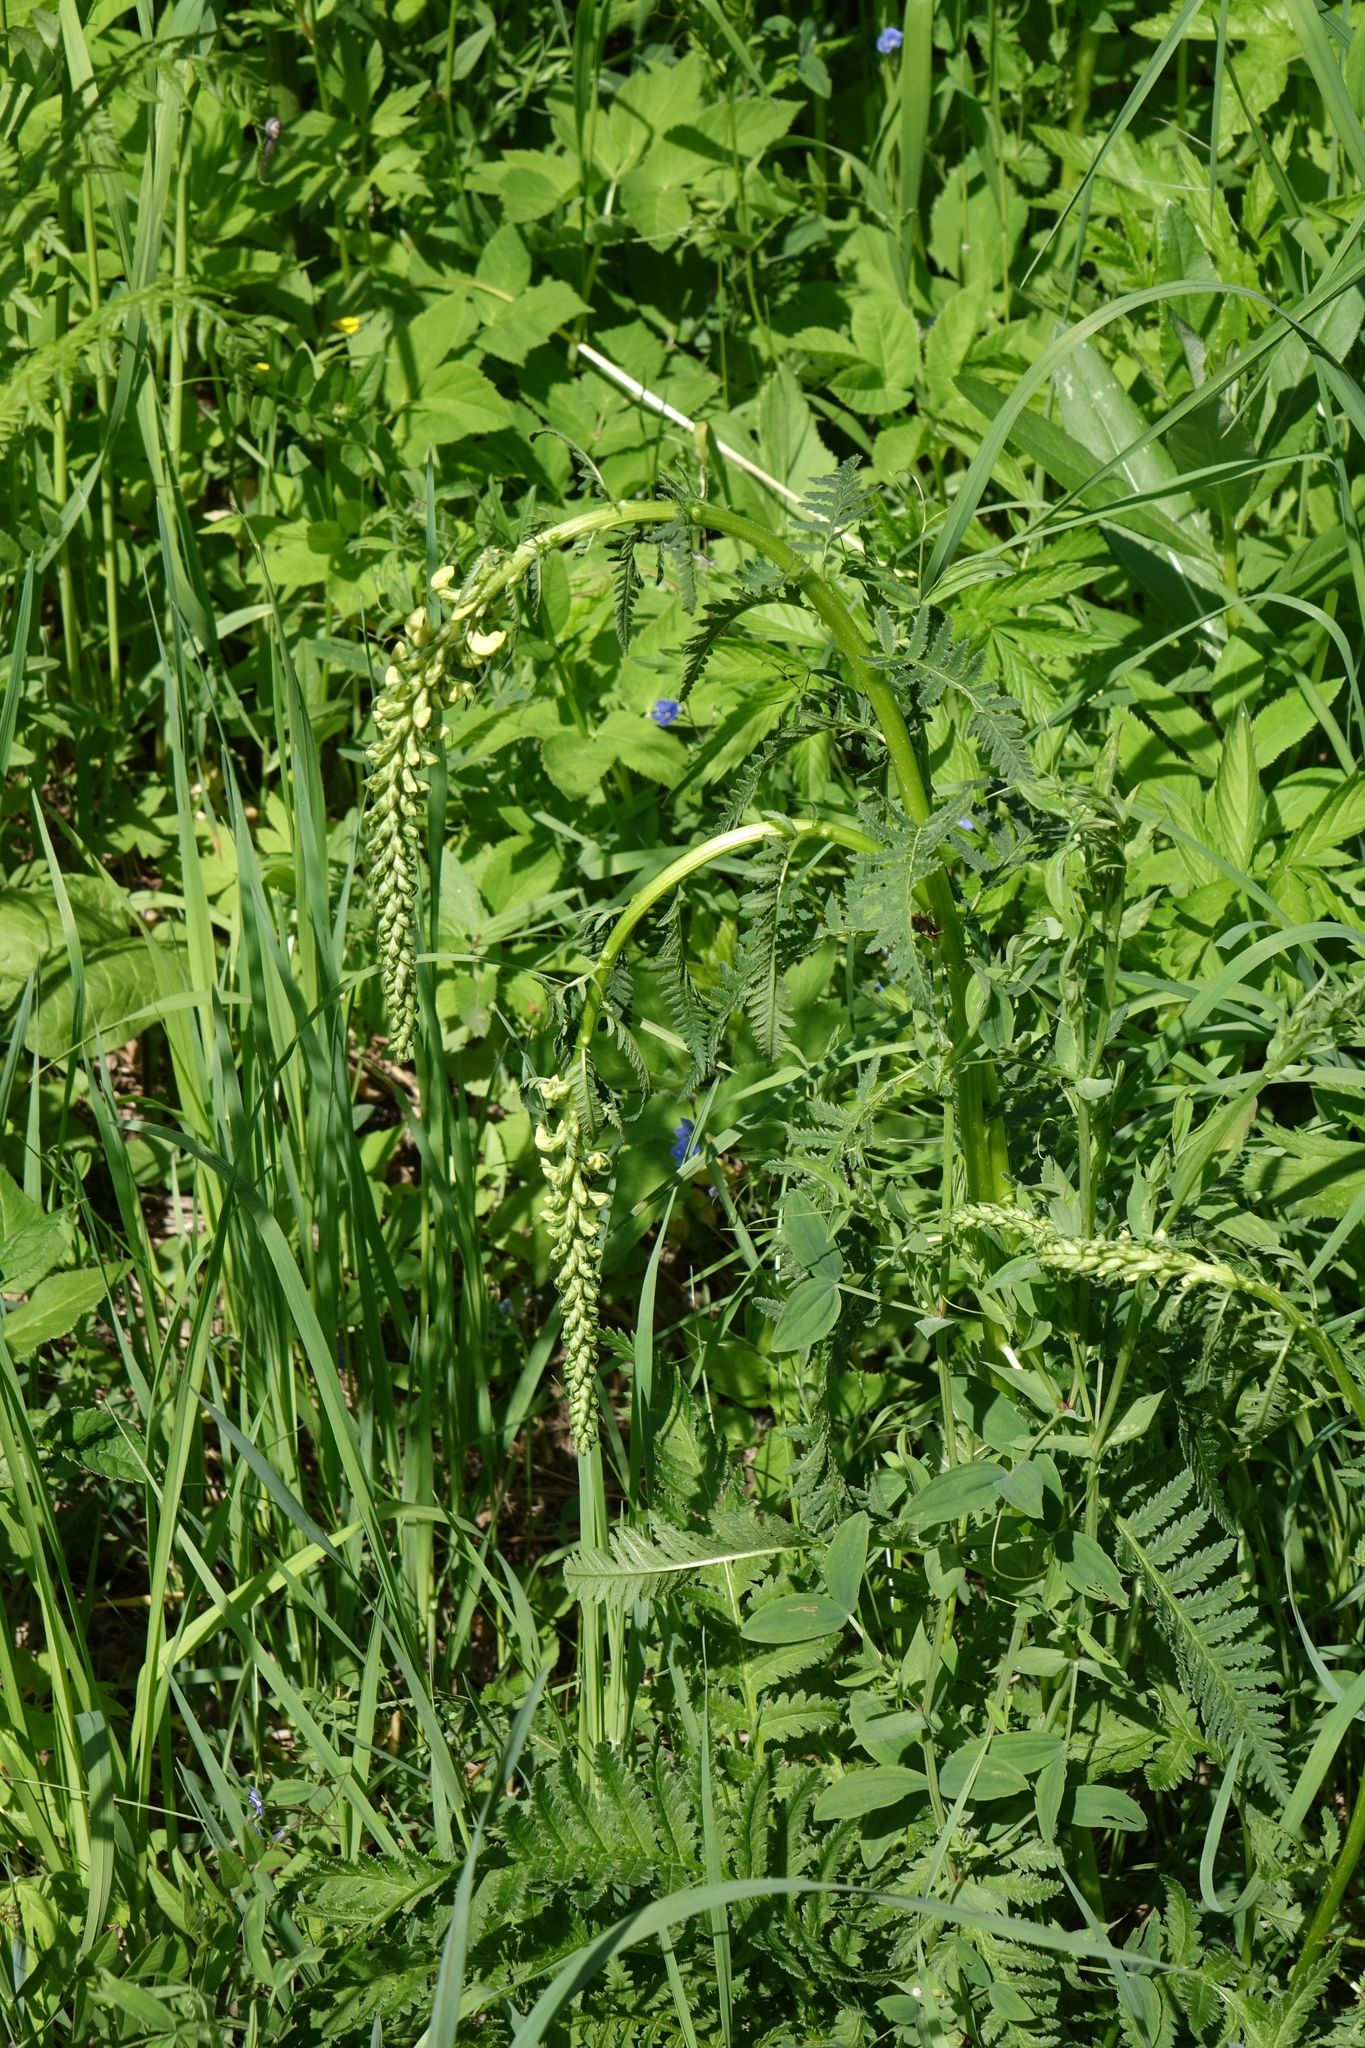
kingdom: Plantae
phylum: Tracheophyta
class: Magnoliopsida
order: Lamiales
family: Orobanchaceae
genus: Pedicularis
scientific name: Pedicularis incarnata
